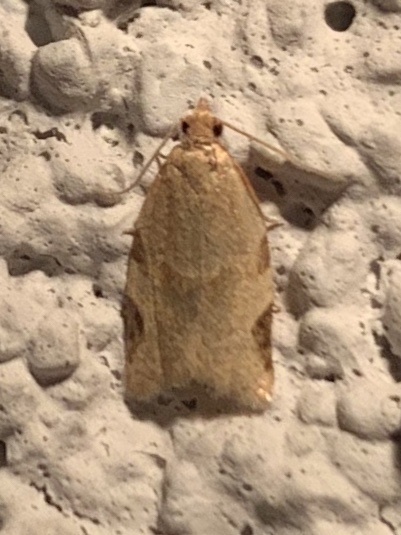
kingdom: Animalia
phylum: Arthropoda
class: Insecta
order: Lepidoptera
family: Tortricidae
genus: Clepsis
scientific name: Clepsis virescana
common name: Greenish apple moth
